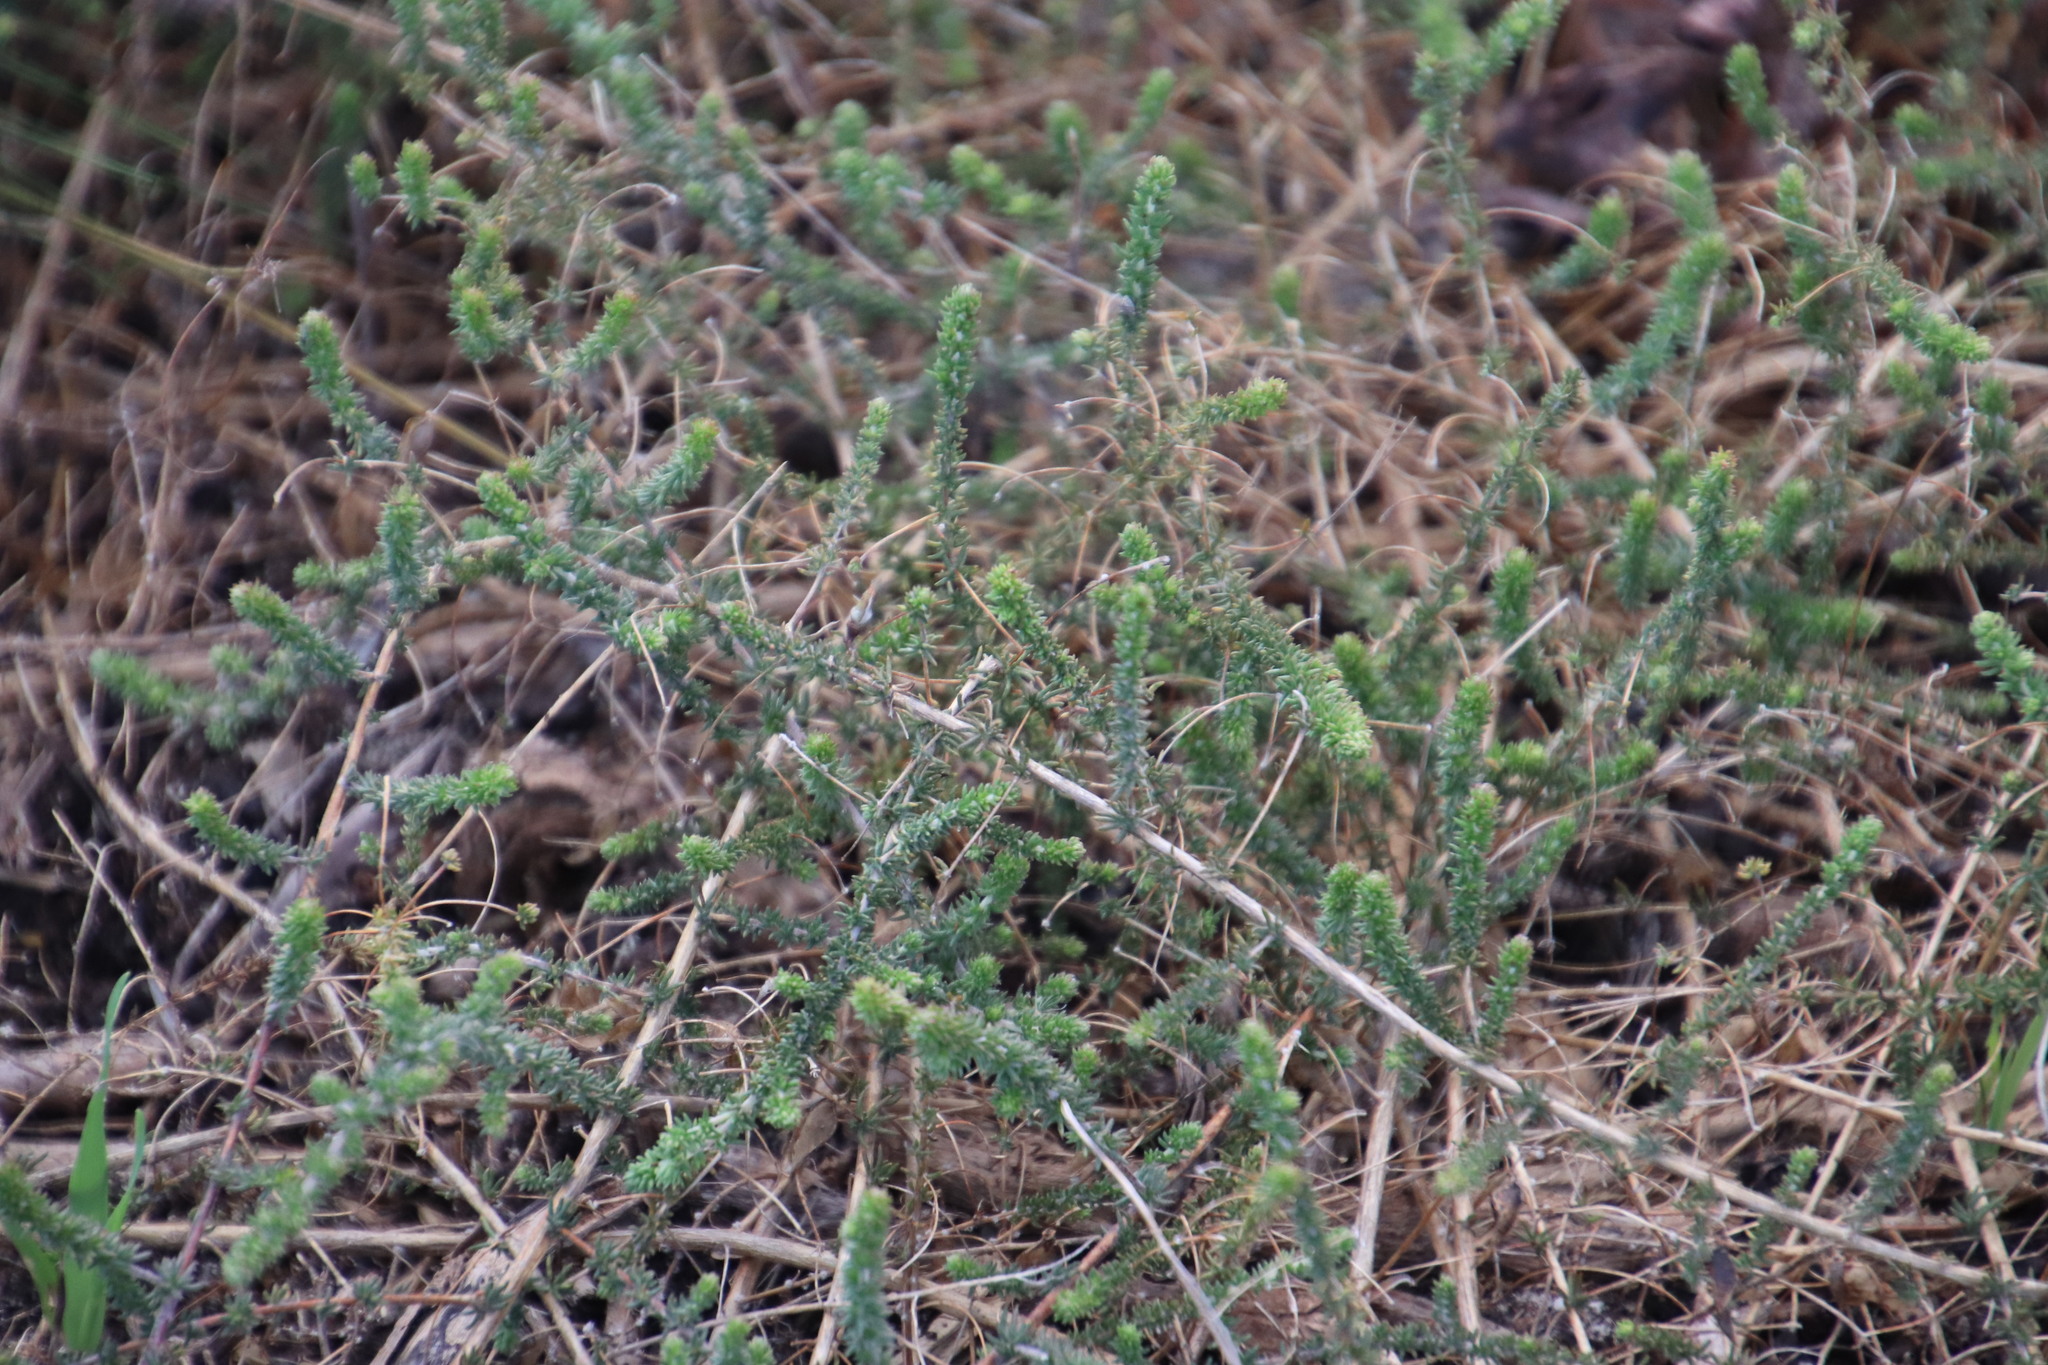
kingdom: Plantae
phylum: Tracheophyta
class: Magnoliopsida
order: Fabales
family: Fabaceae
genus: Aspalathus
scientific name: Aspalathus retroflexa
